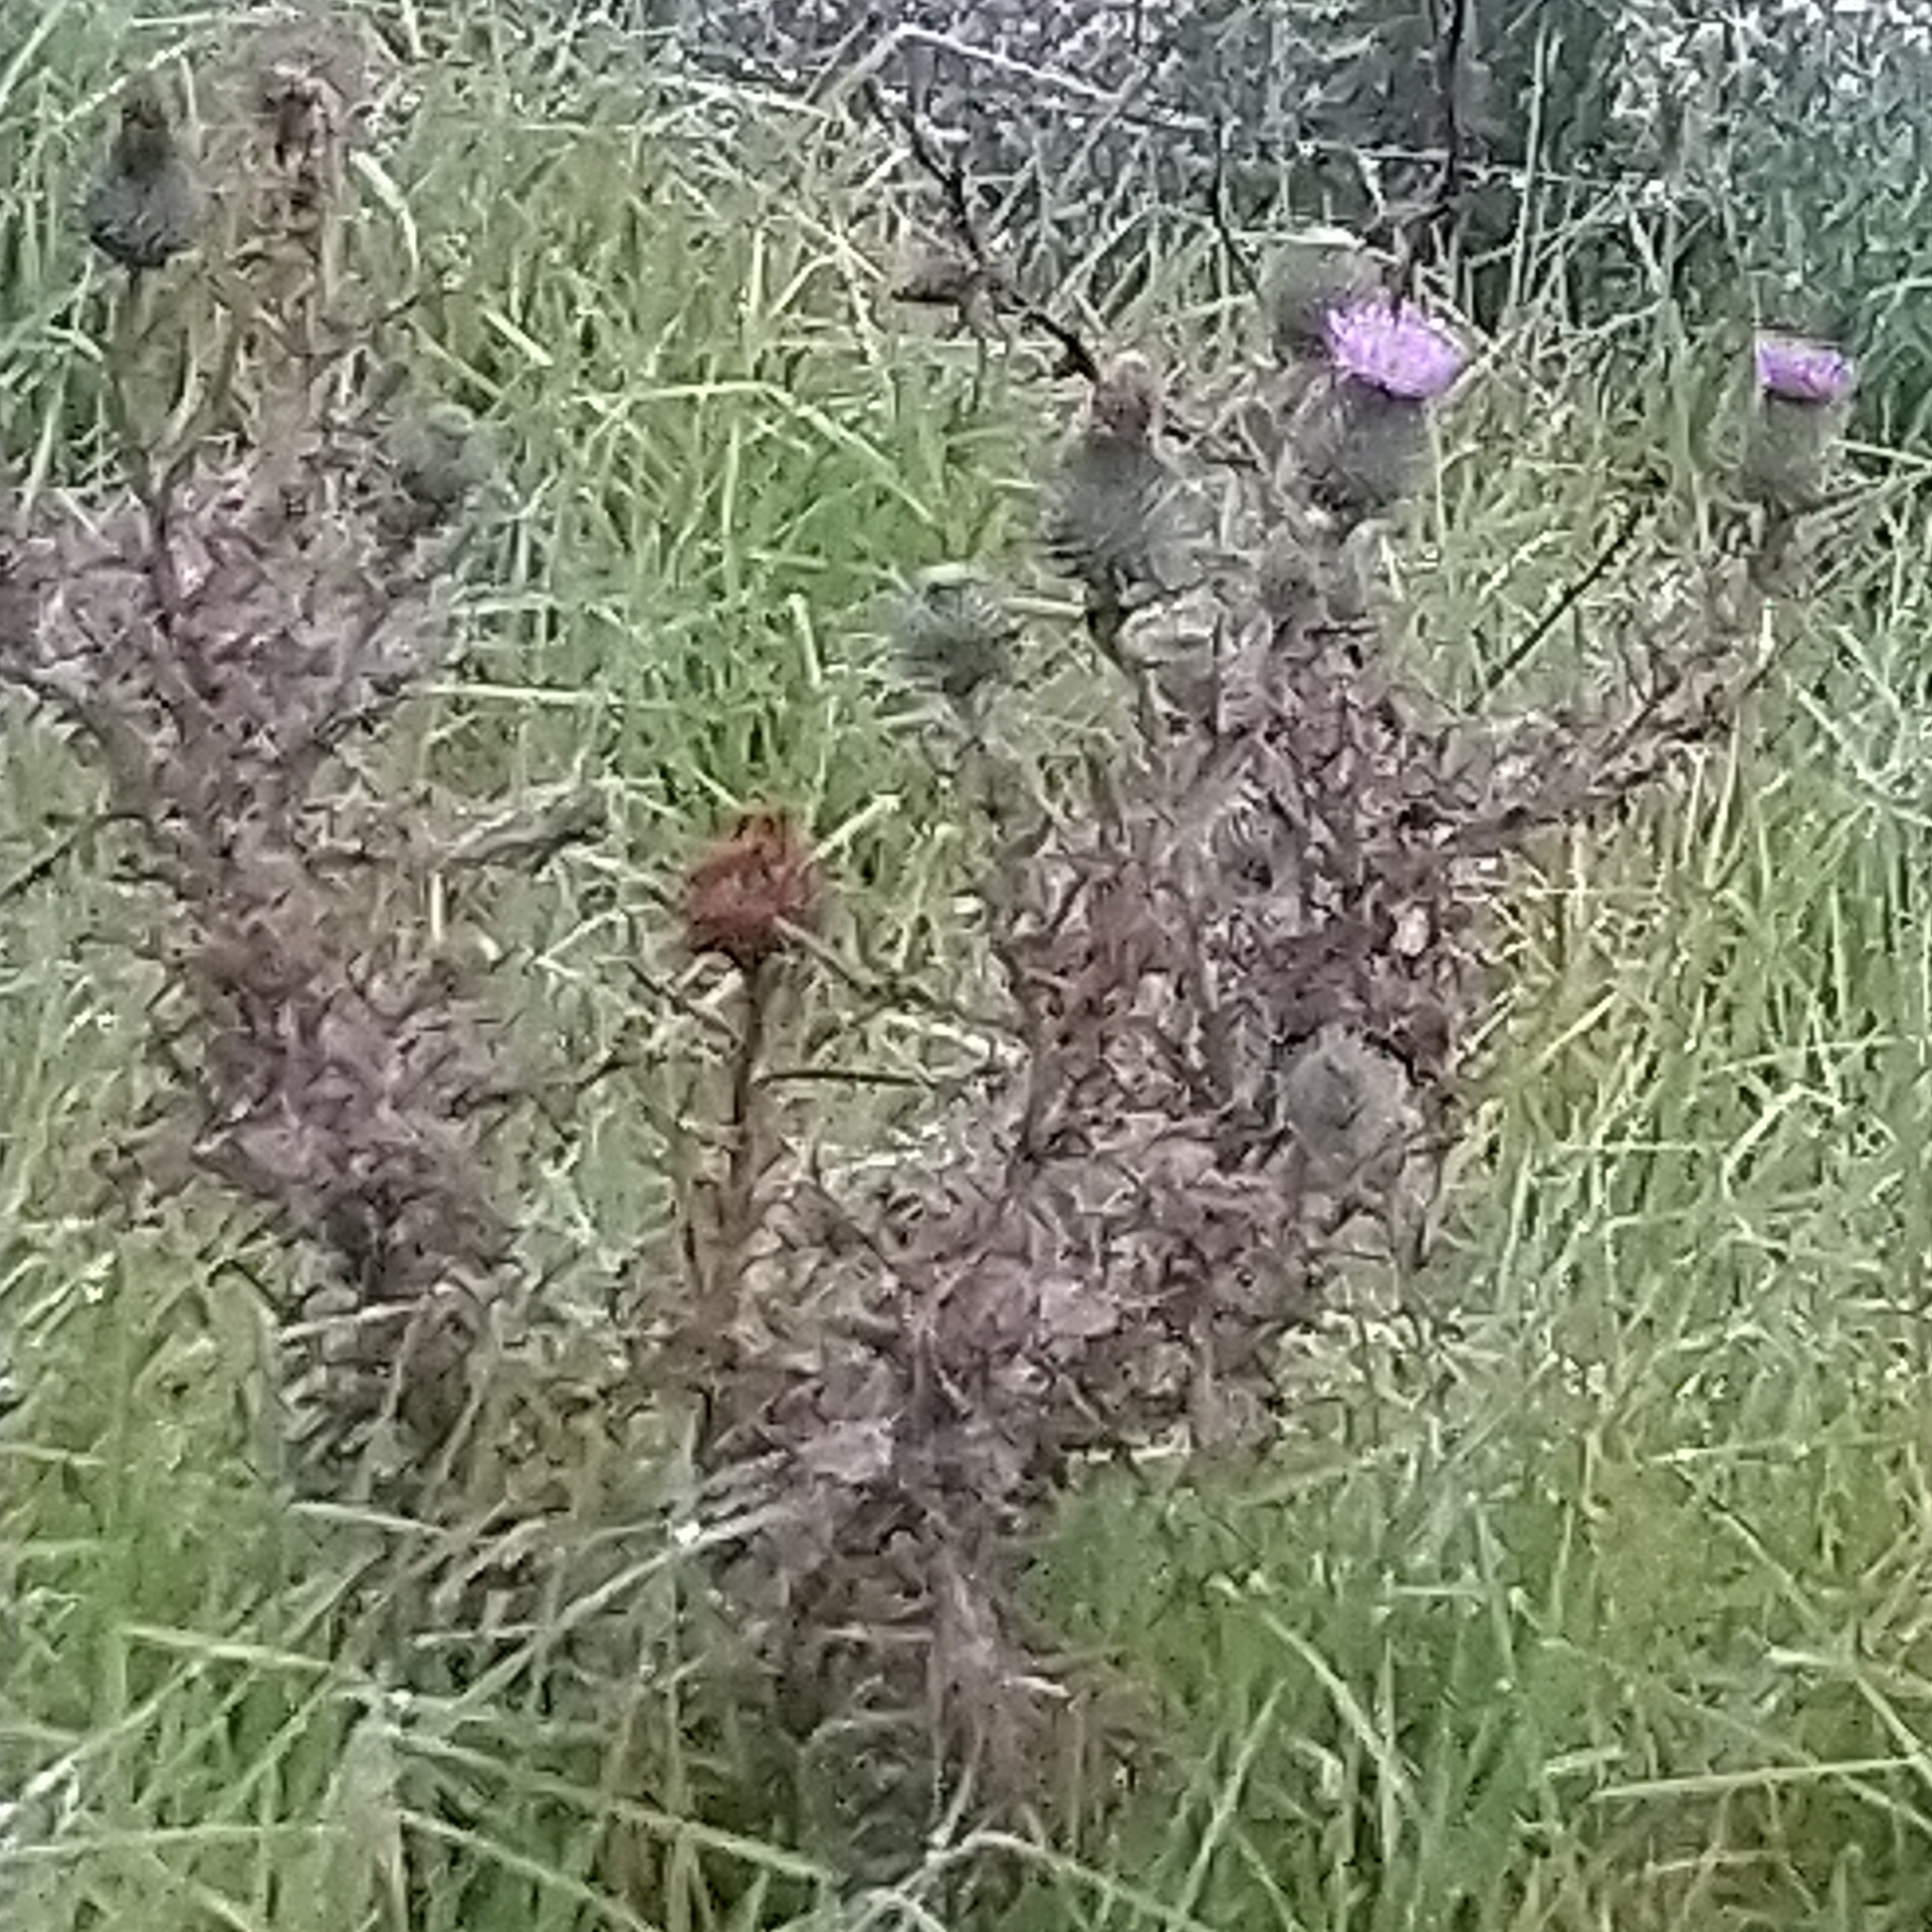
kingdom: Plantae
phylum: Tracheophyta
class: Magnoliopsida
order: Asterales
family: Asteraceae
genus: Cirsium
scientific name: Cirsium vulgare
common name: Bull thistle
